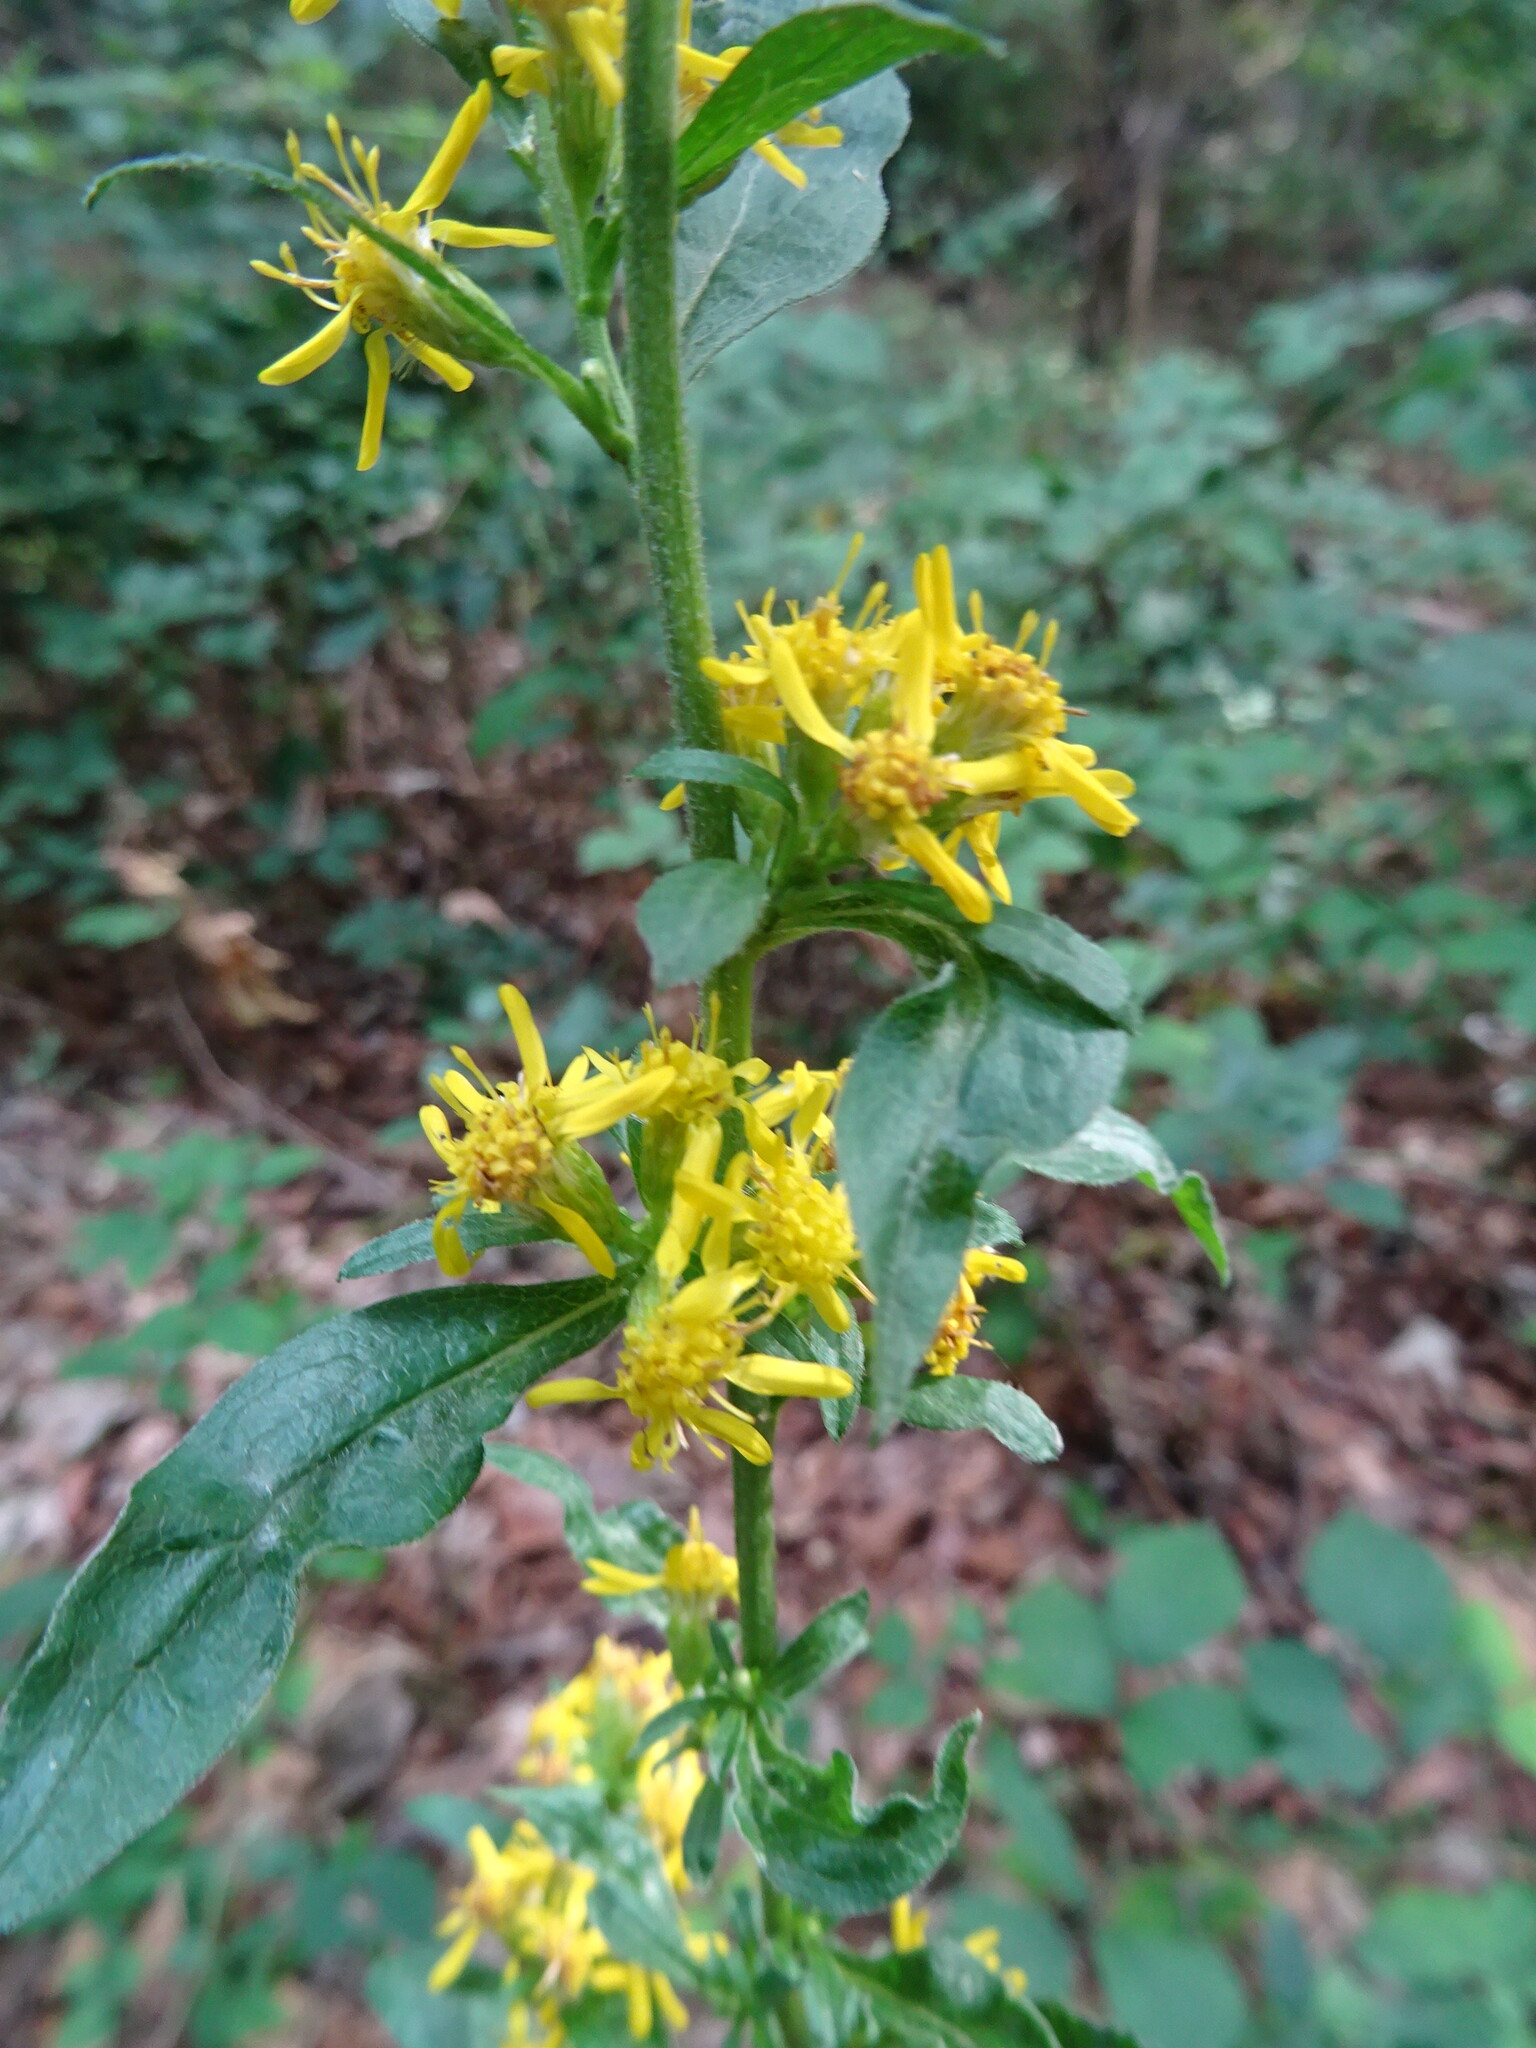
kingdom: Plantae
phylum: Tracheophyta
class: Magnoliopsida
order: Asterales
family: Asteraceae
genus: Solidago
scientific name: Solidago virgaurea
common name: Goldenrod
